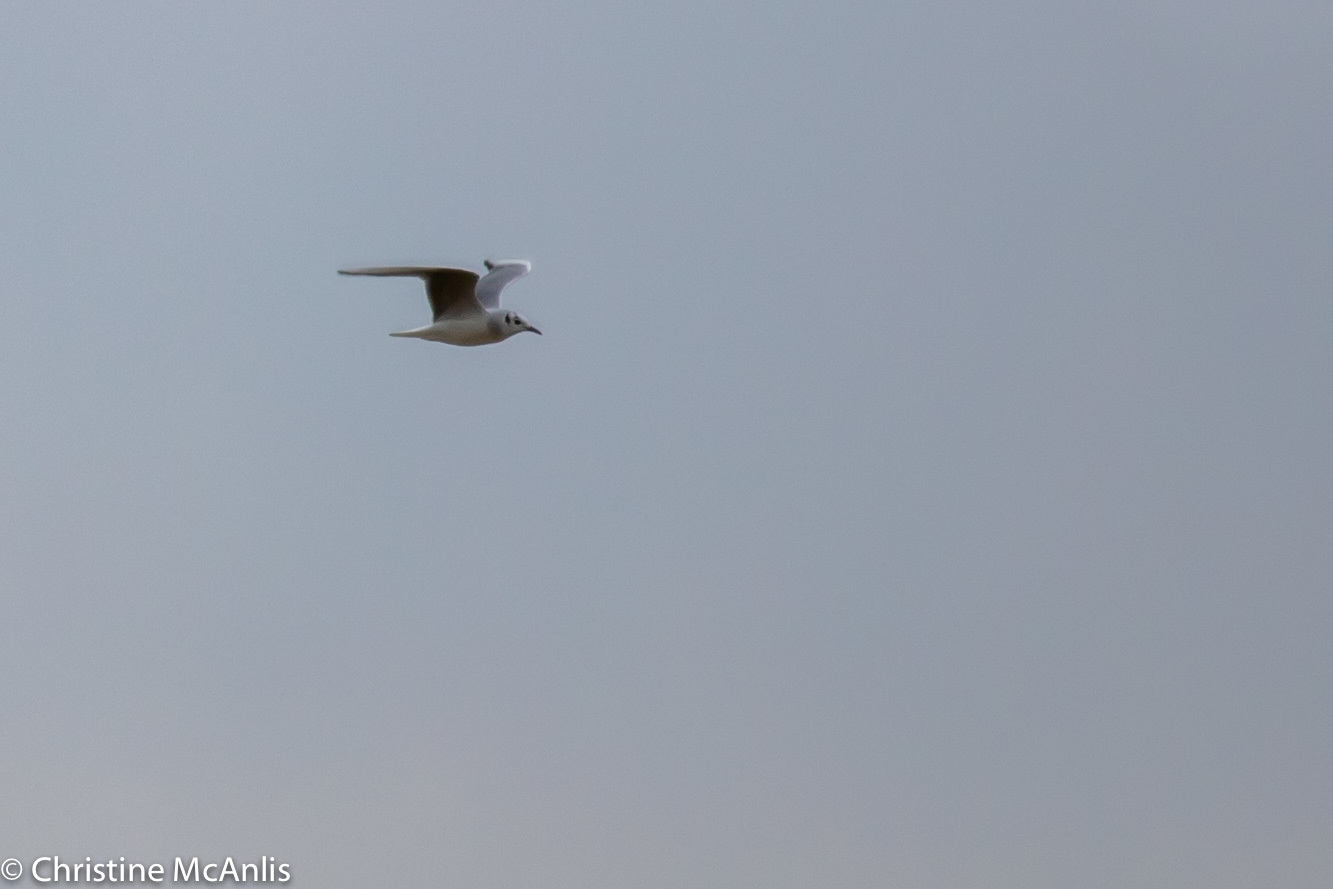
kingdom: Animalia
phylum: Chordata
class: Aves
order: Charadriiformes
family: Laridae
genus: Chroicocephalus
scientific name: Chroicocephalus philadelphia
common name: Bonaparte's gull
